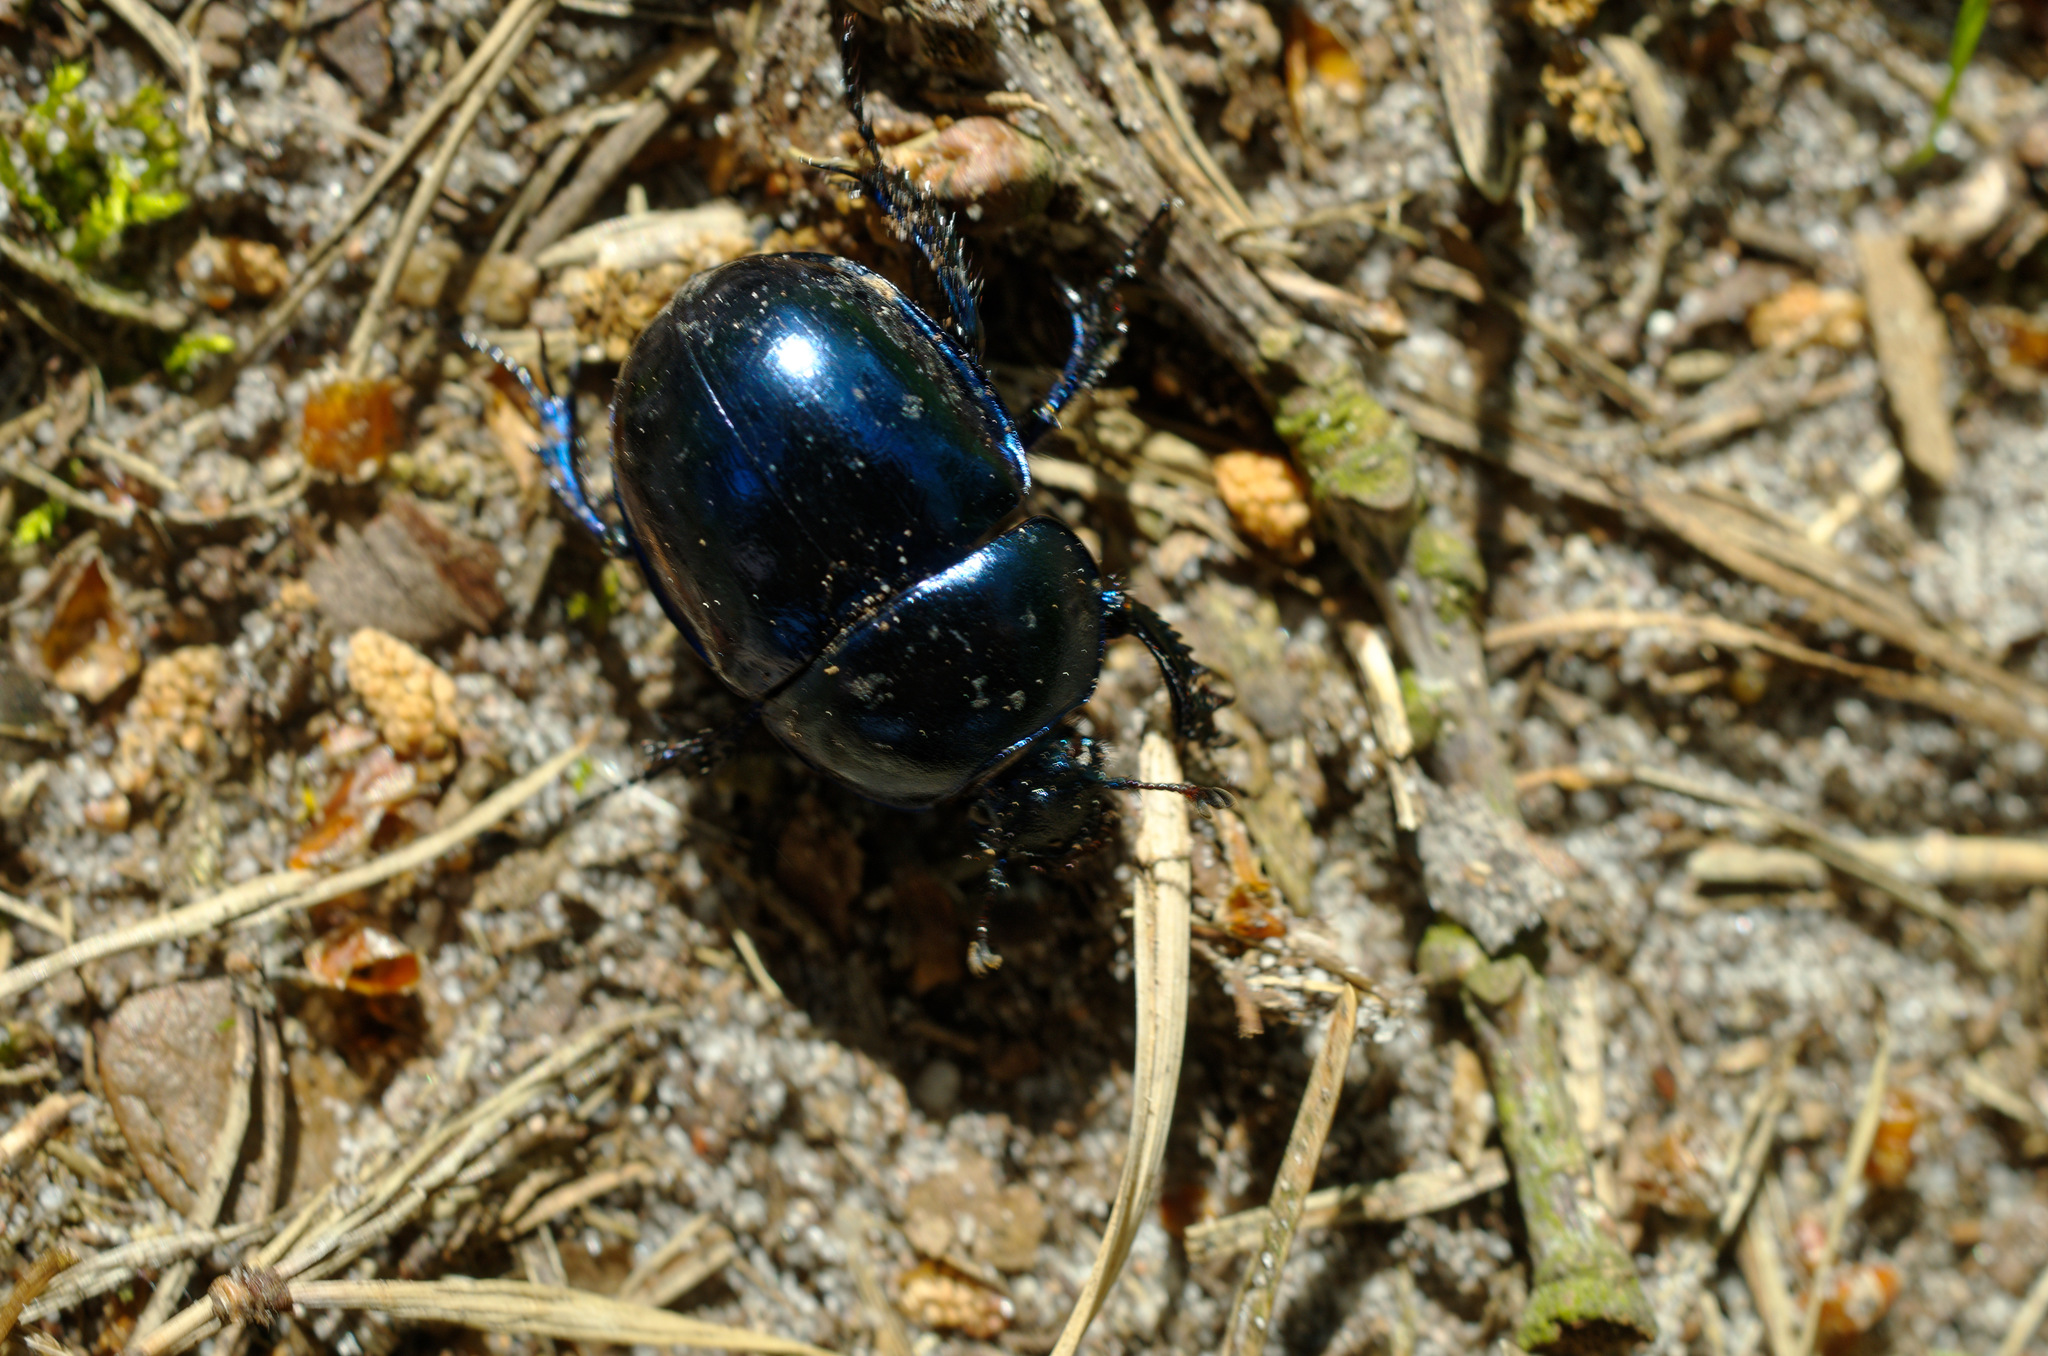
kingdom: Animalia
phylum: Arthropoda
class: Insecta
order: Coleoptera
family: Geotrupidae
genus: Trypocopris
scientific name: Trypocopris vernalis
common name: Spring dumbledor
